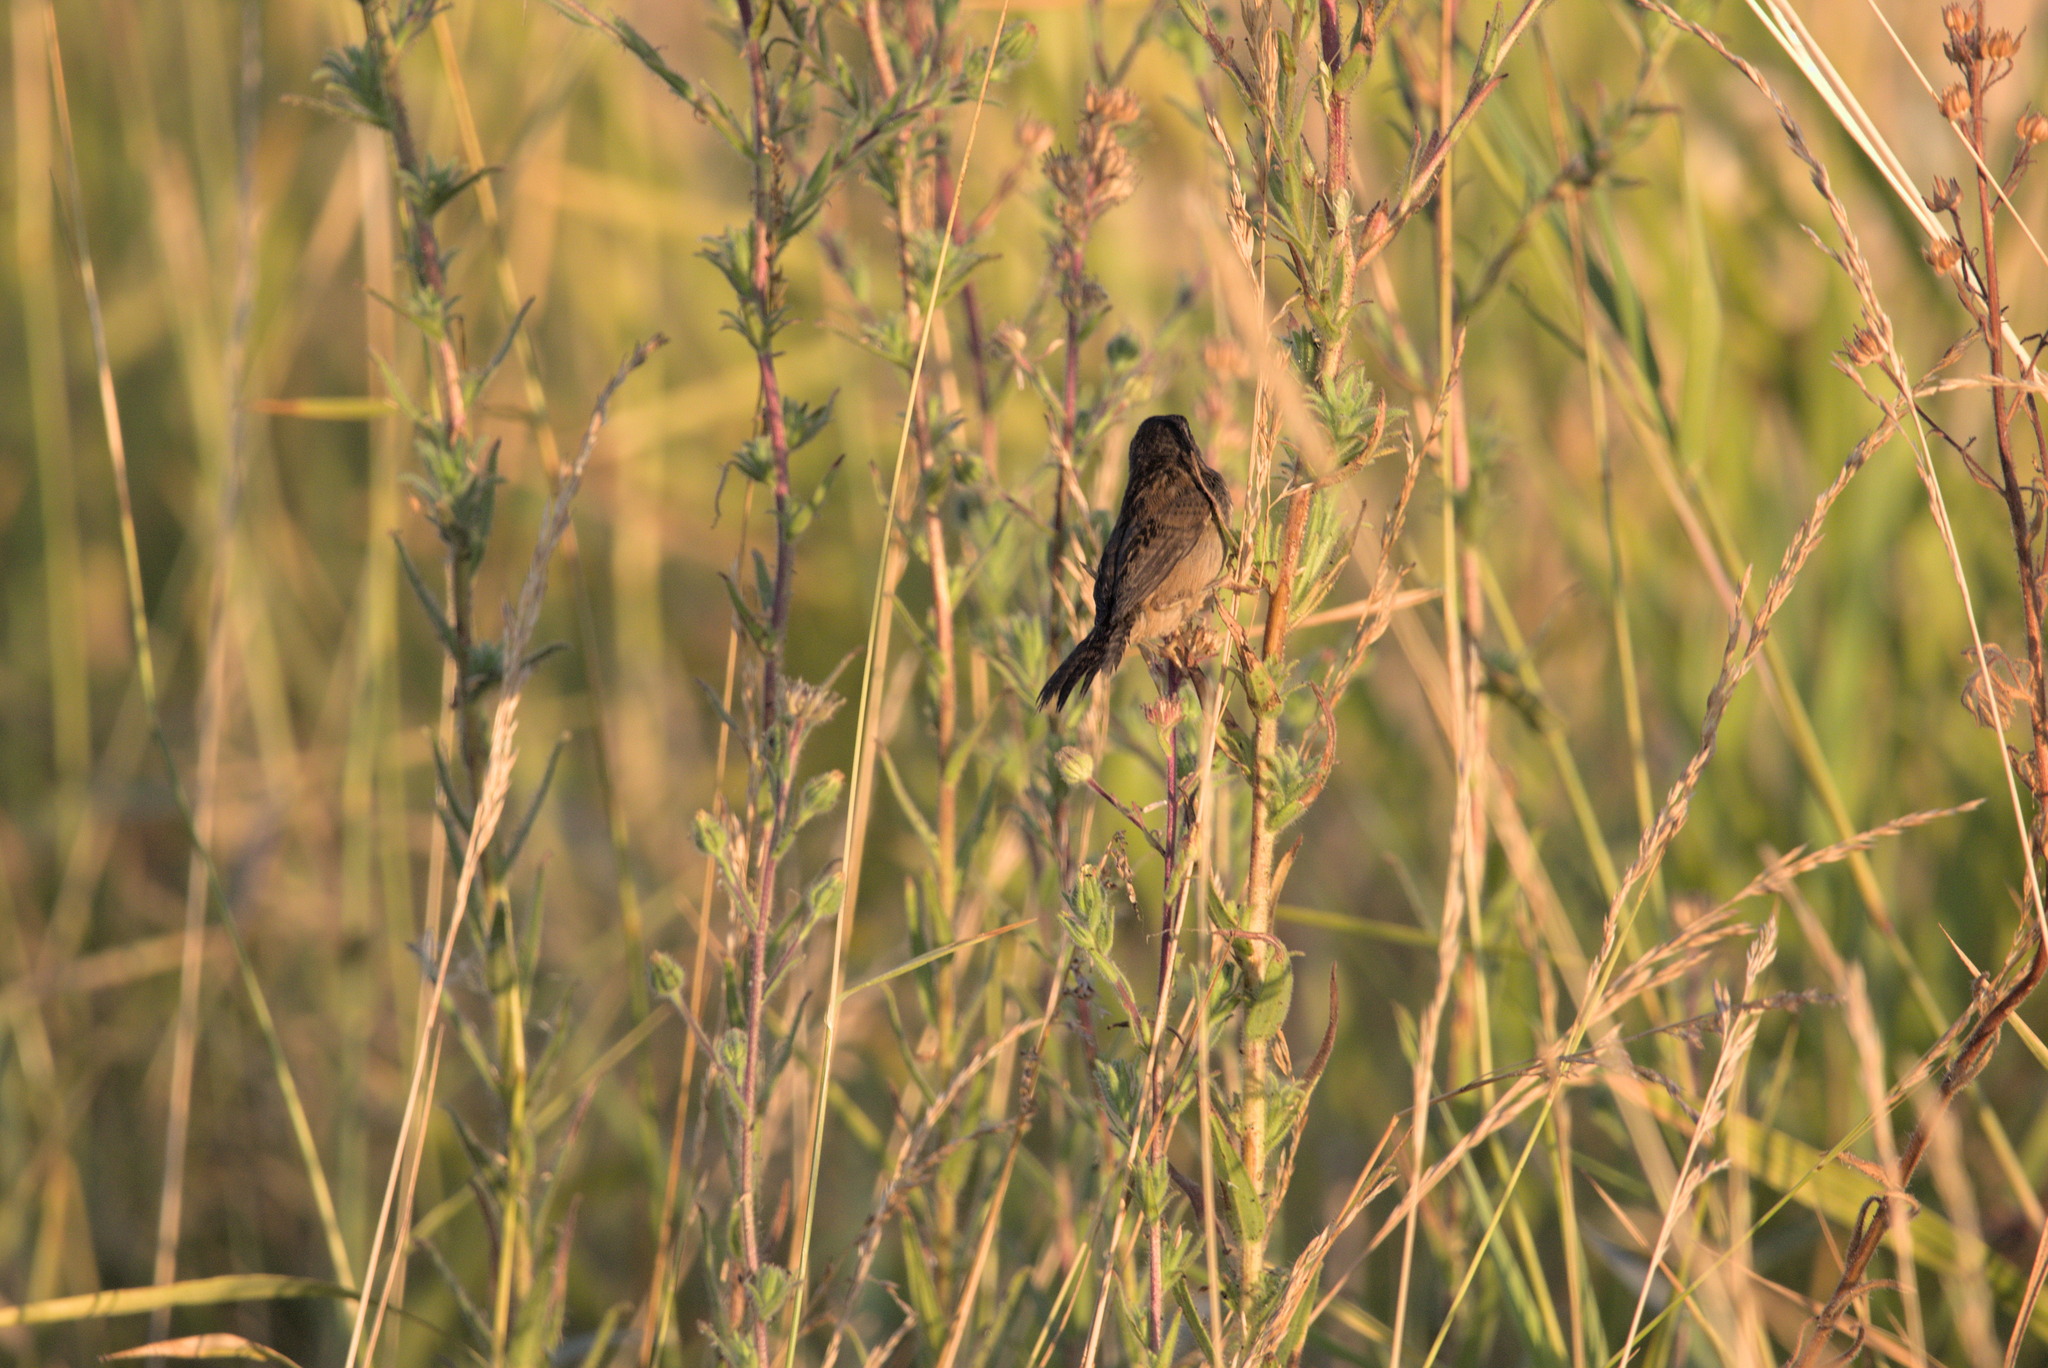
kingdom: Animalia
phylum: Chordata
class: Aves
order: Passeriformes
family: Troglodytidae
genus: Cistothorus
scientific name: Cistothorus palustris
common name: Marsh wren
